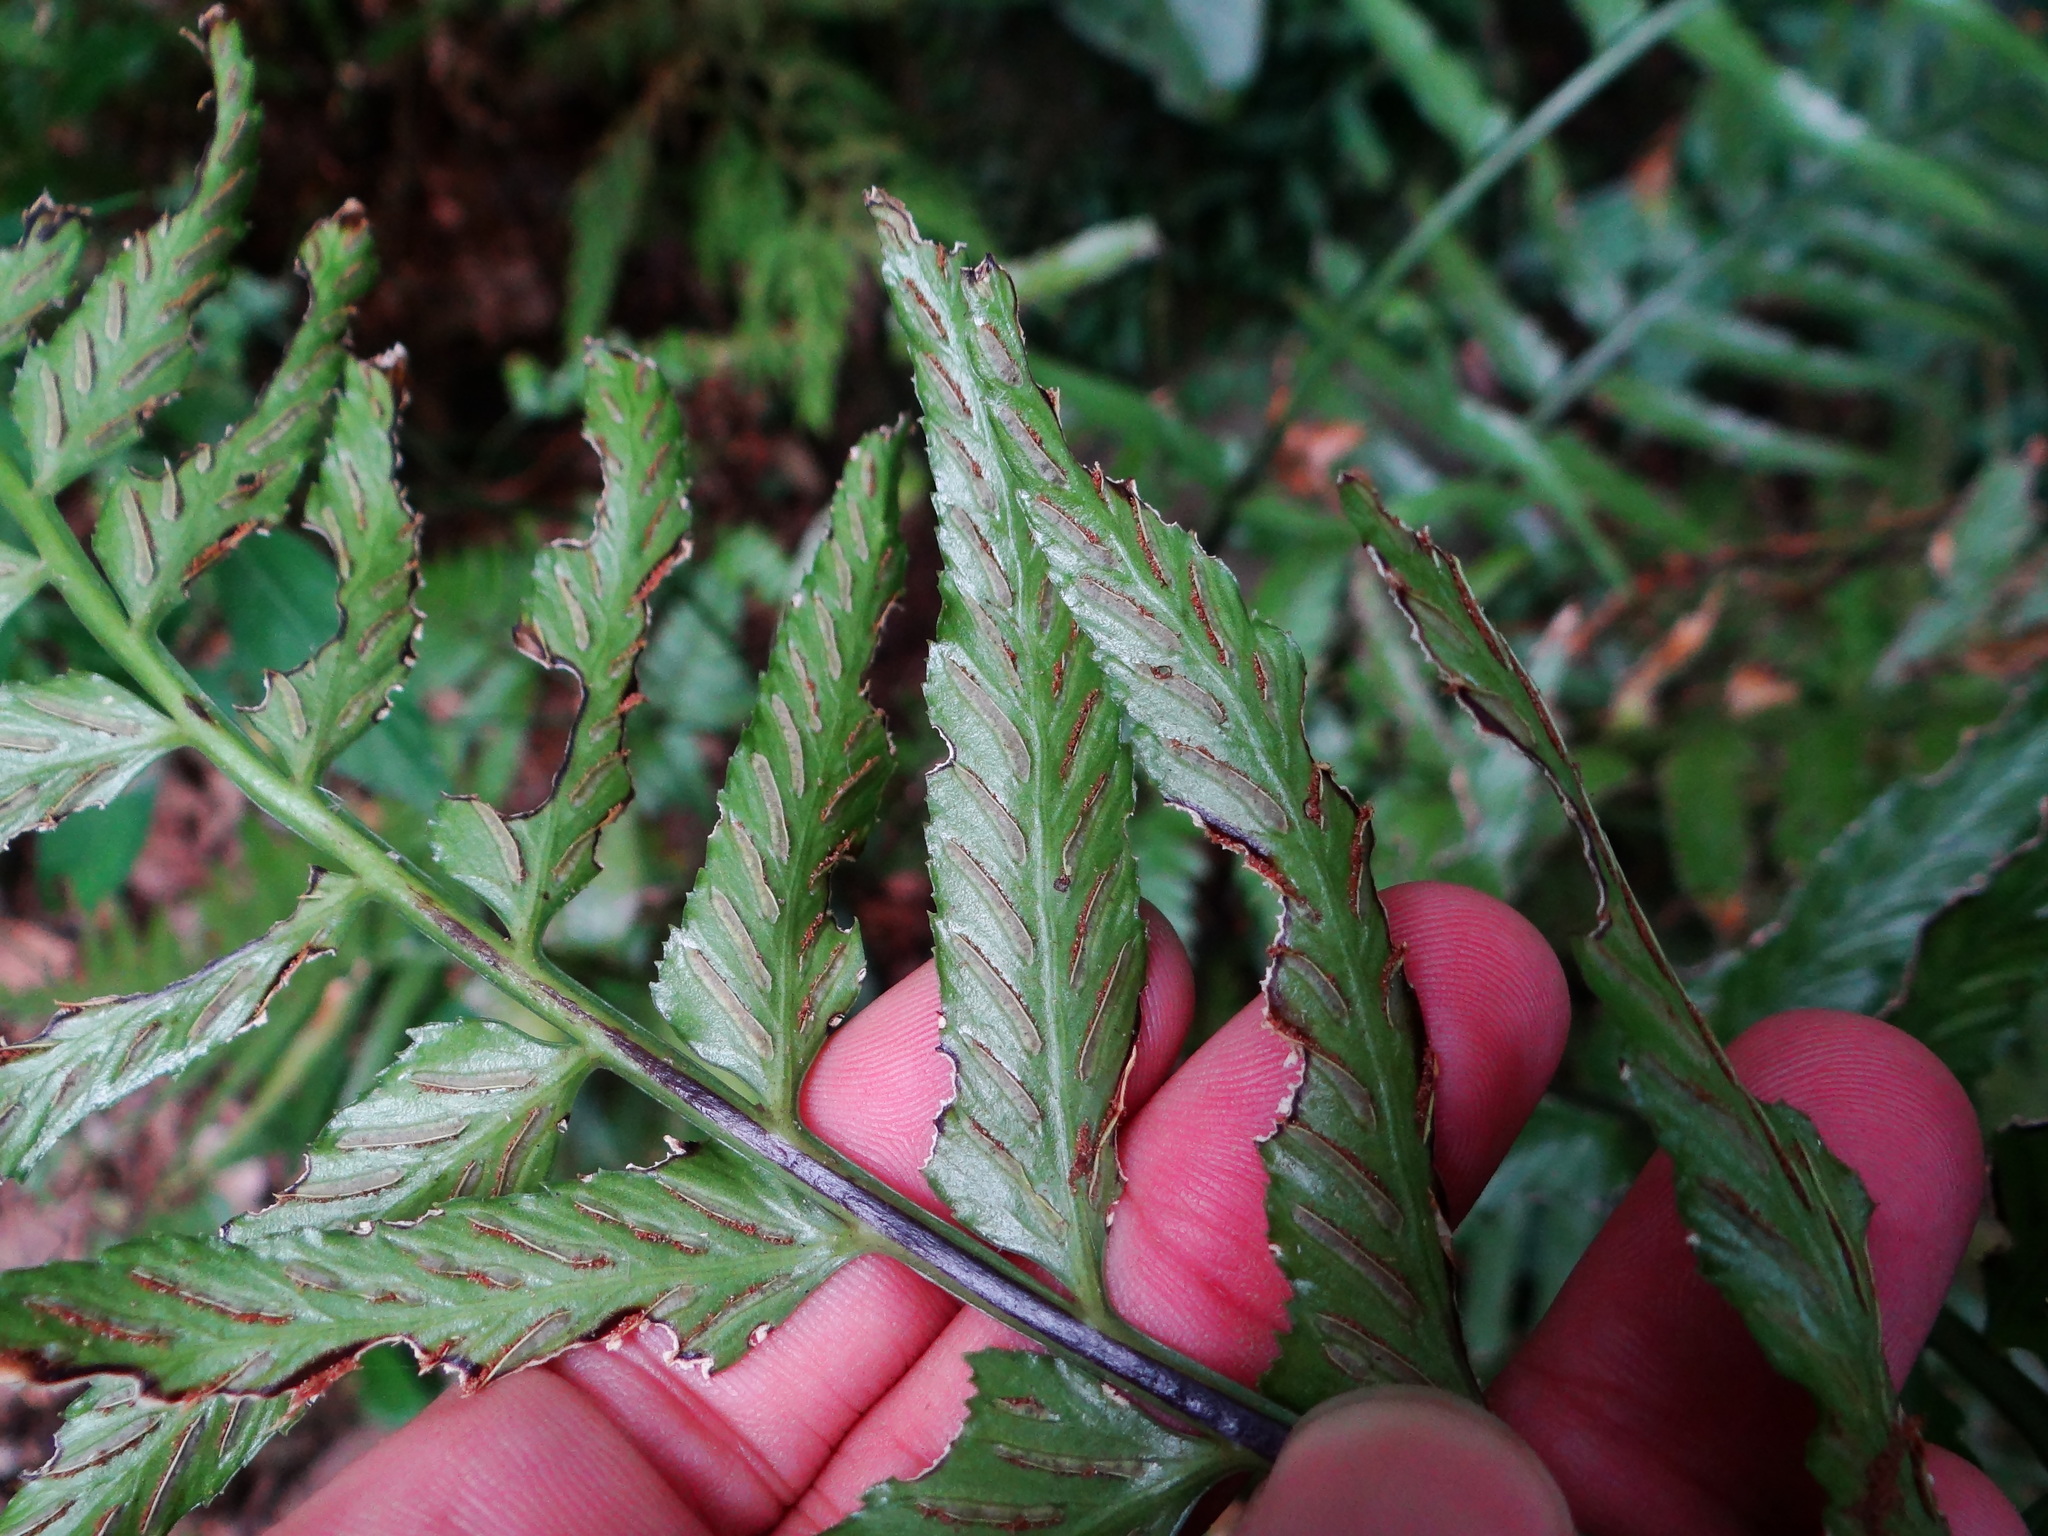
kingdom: Plantae
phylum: Tracheophyta
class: Polypodiopsida
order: Polypodiales
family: Aspleniaceae
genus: Asplenium
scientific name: Asplenium wrightii
